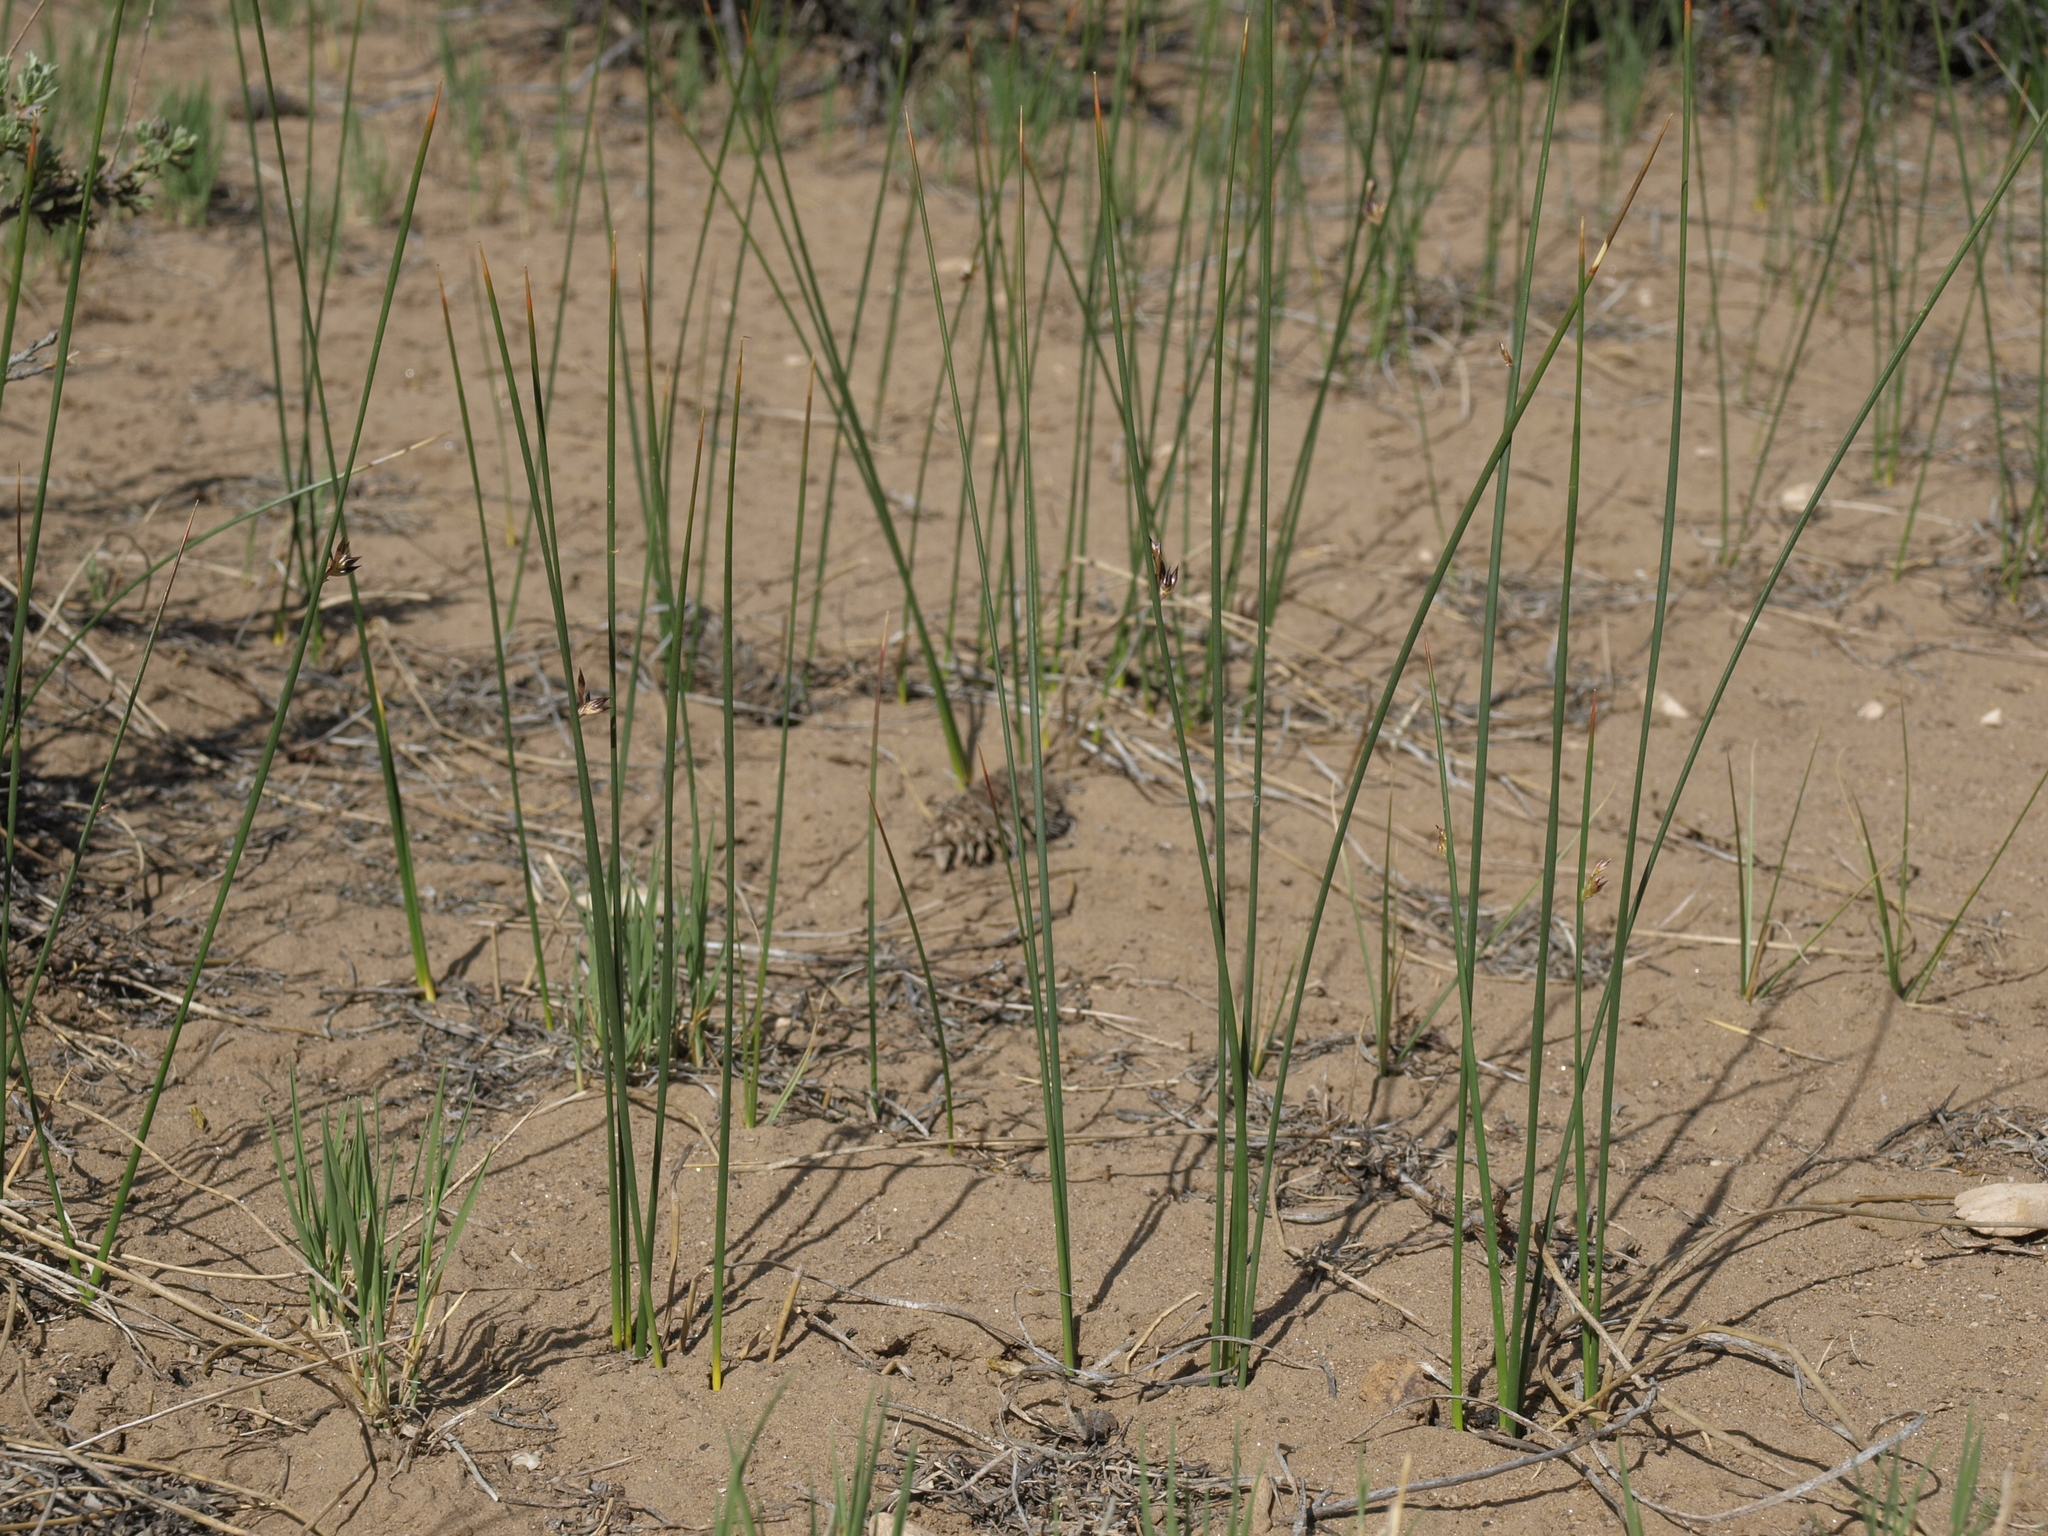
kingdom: Plantae
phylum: Tracheophyta
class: Liliopsida
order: Poales
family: Juncaceae
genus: Juncus
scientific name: Juncus balticus
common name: Baltic rush
